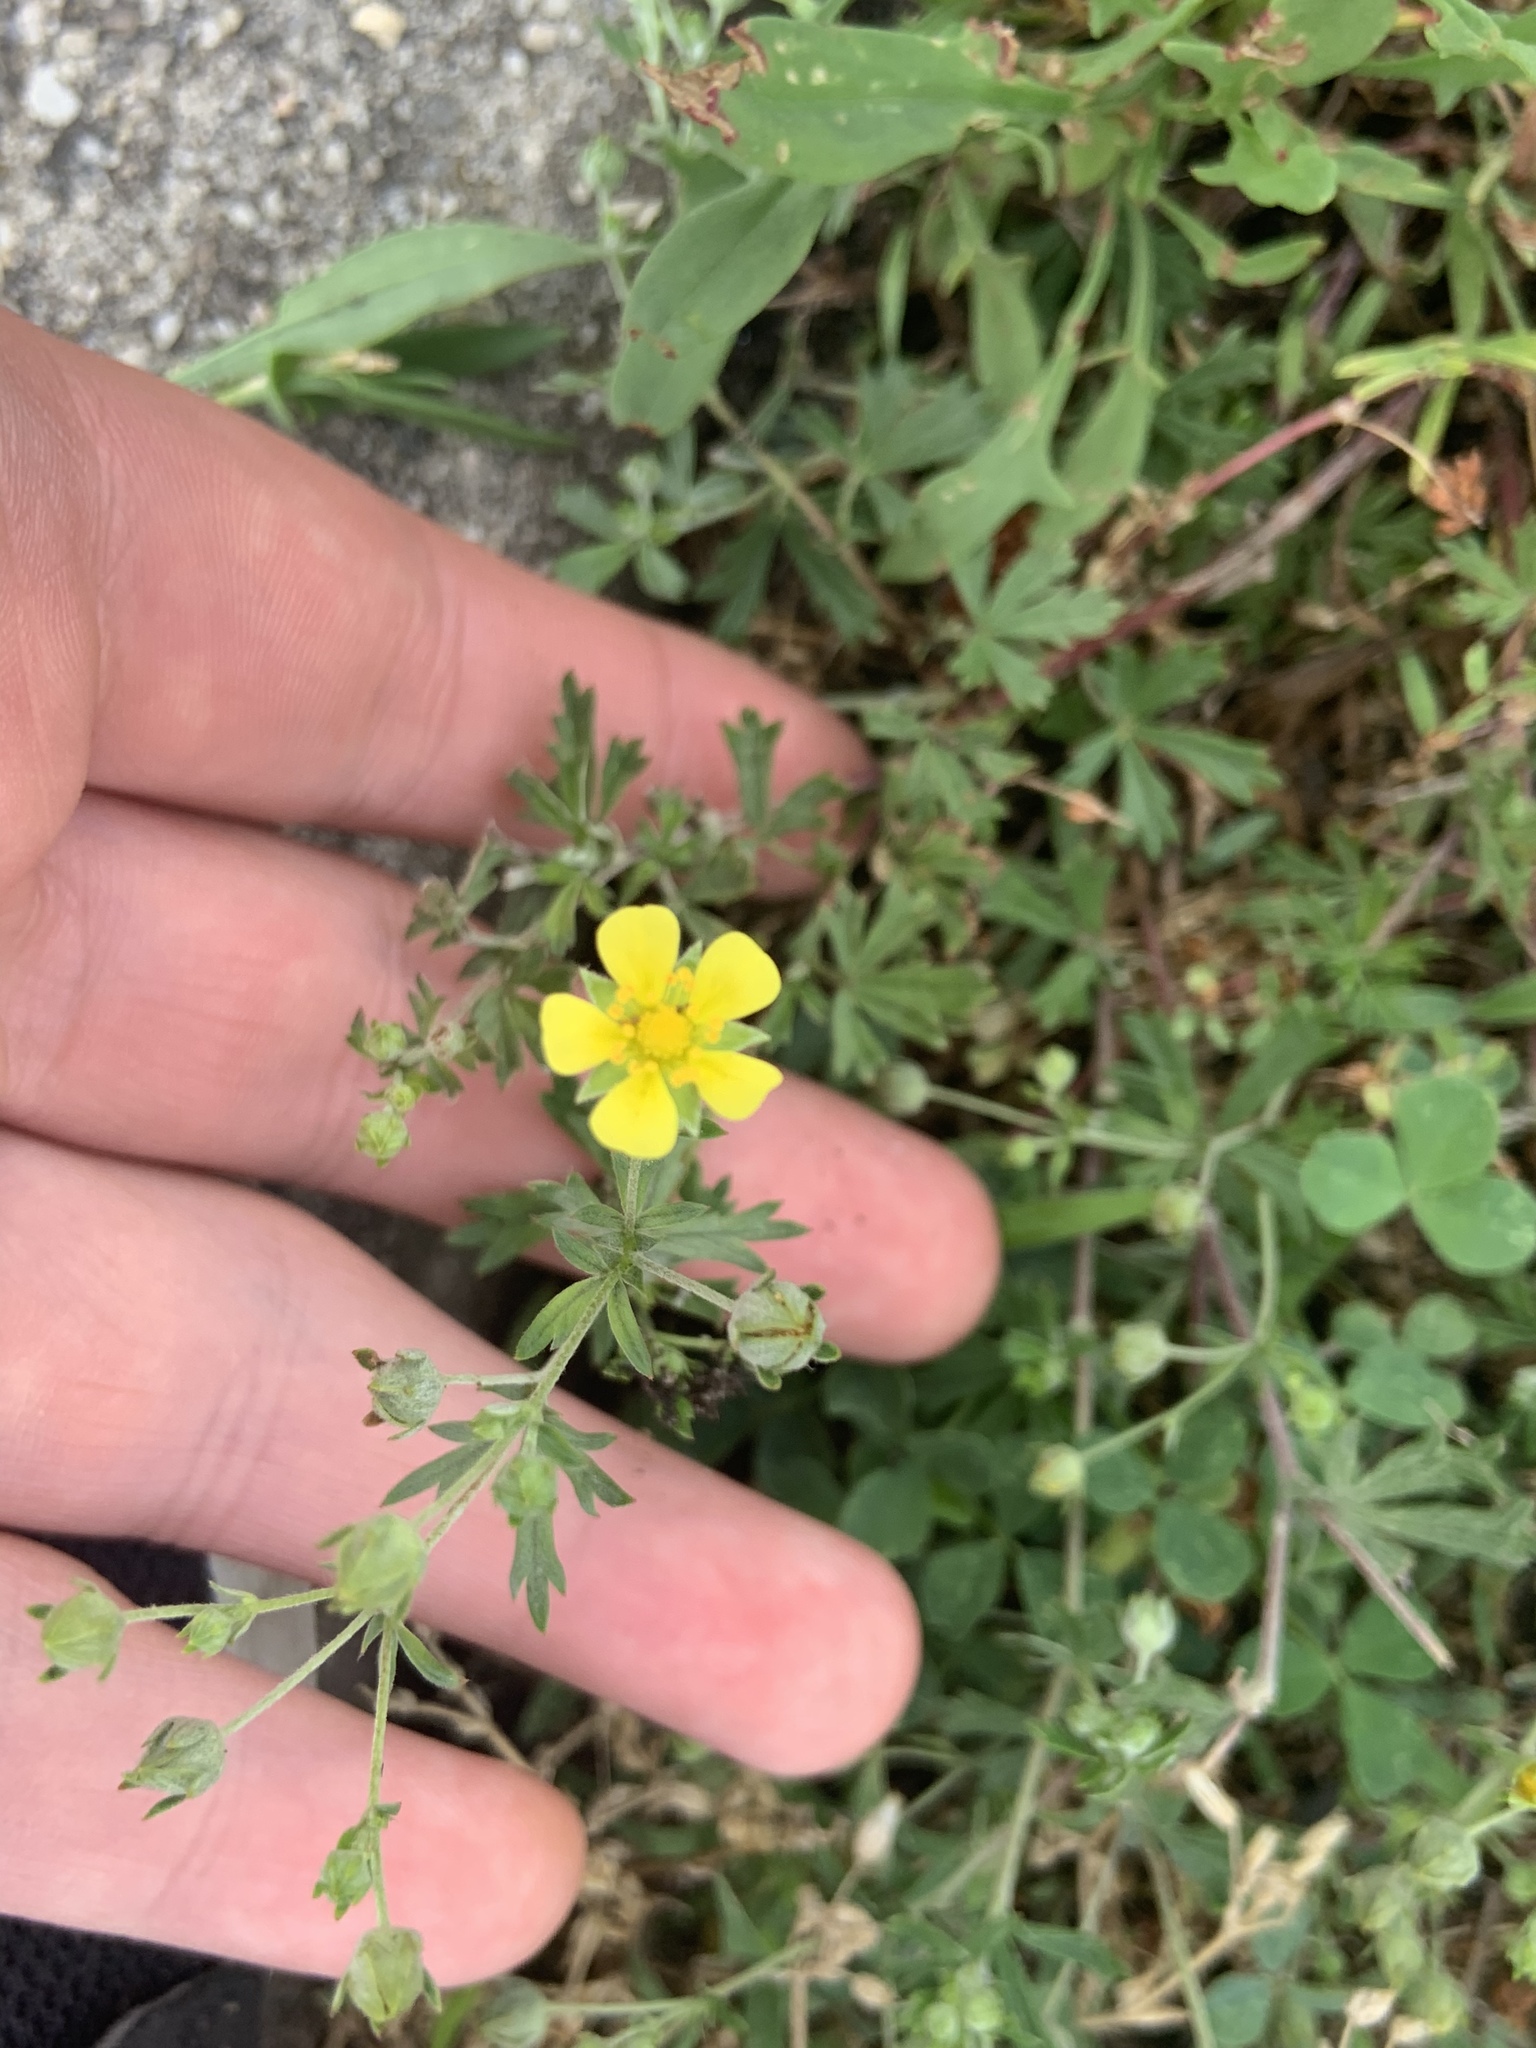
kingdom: Plantae
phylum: Tracheophyta
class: Magnoliopsida
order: Rosales
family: Rosaceae
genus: Potentilla
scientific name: Potentilla argentea
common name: Hoary cinquefoil
